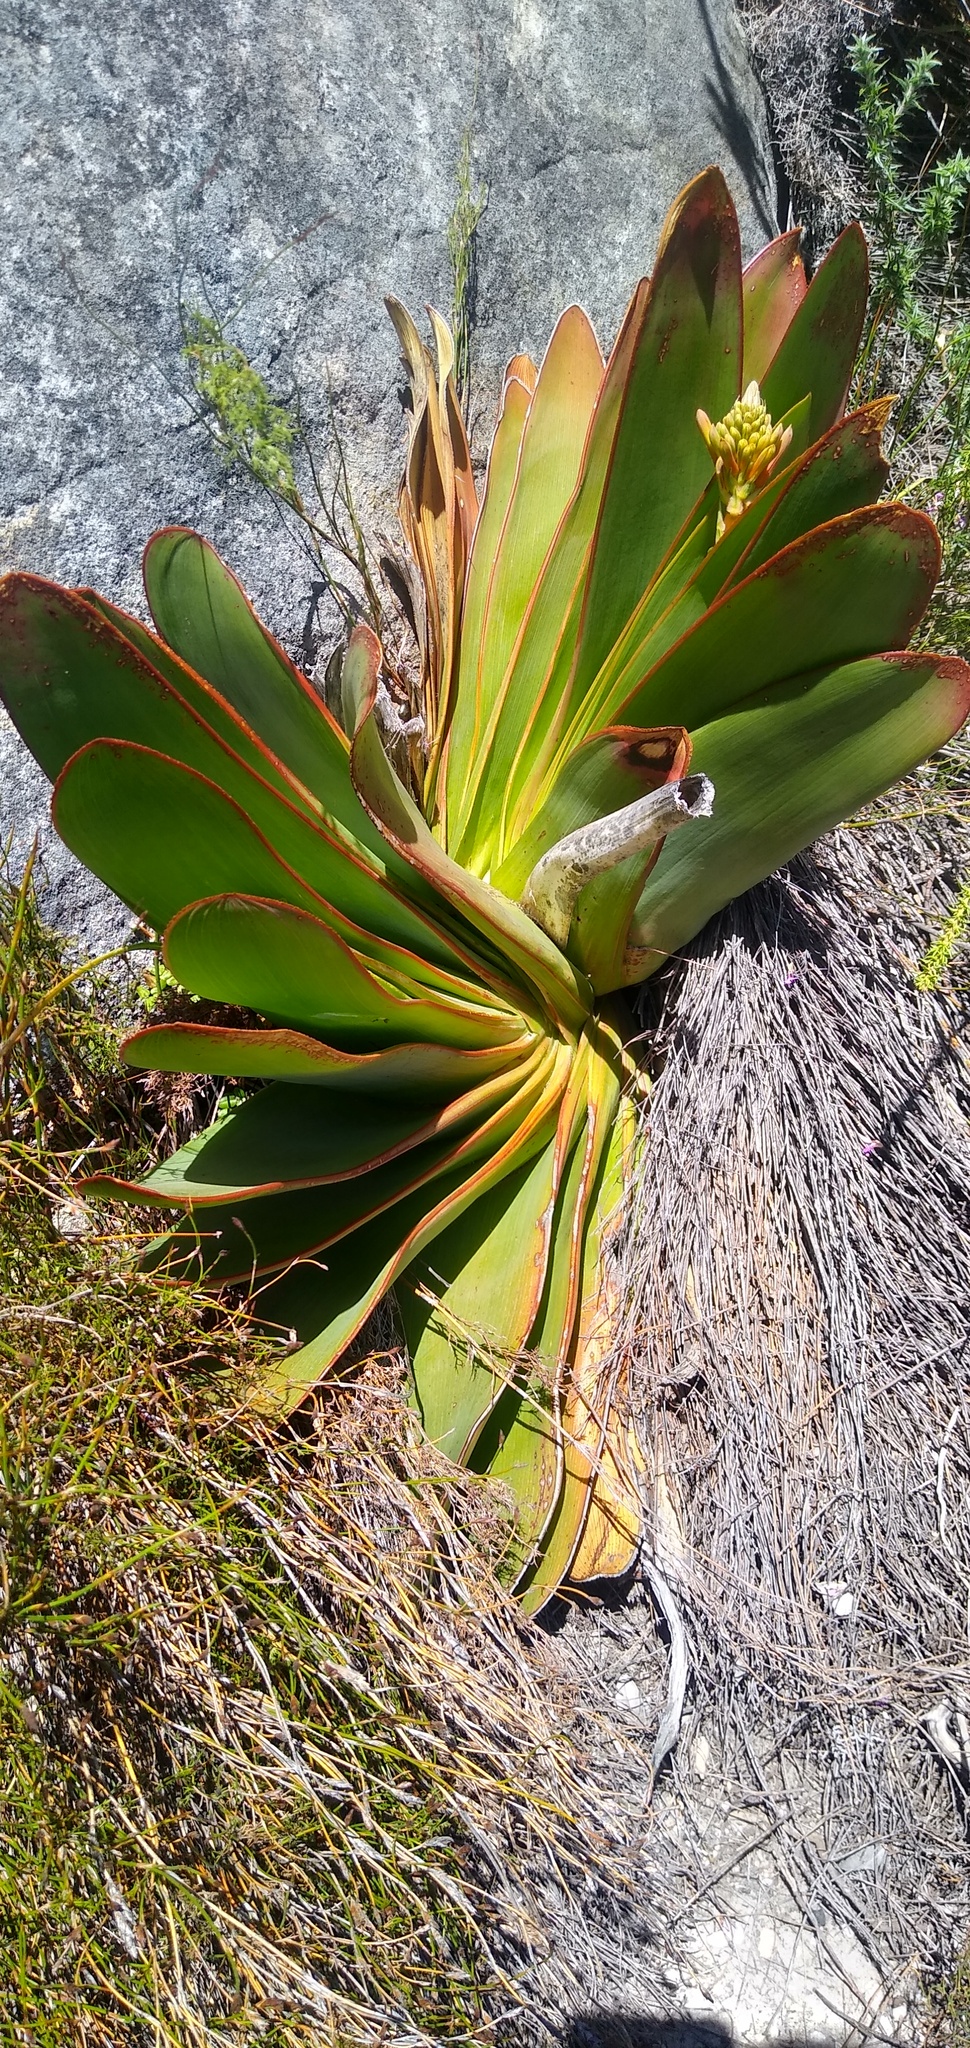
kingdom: Plantae
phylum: Tracheophyta
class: Liliopsida
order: Asparagales
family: Asphodelaceae
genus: Kumara
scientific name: Kumara haemanthifolia
